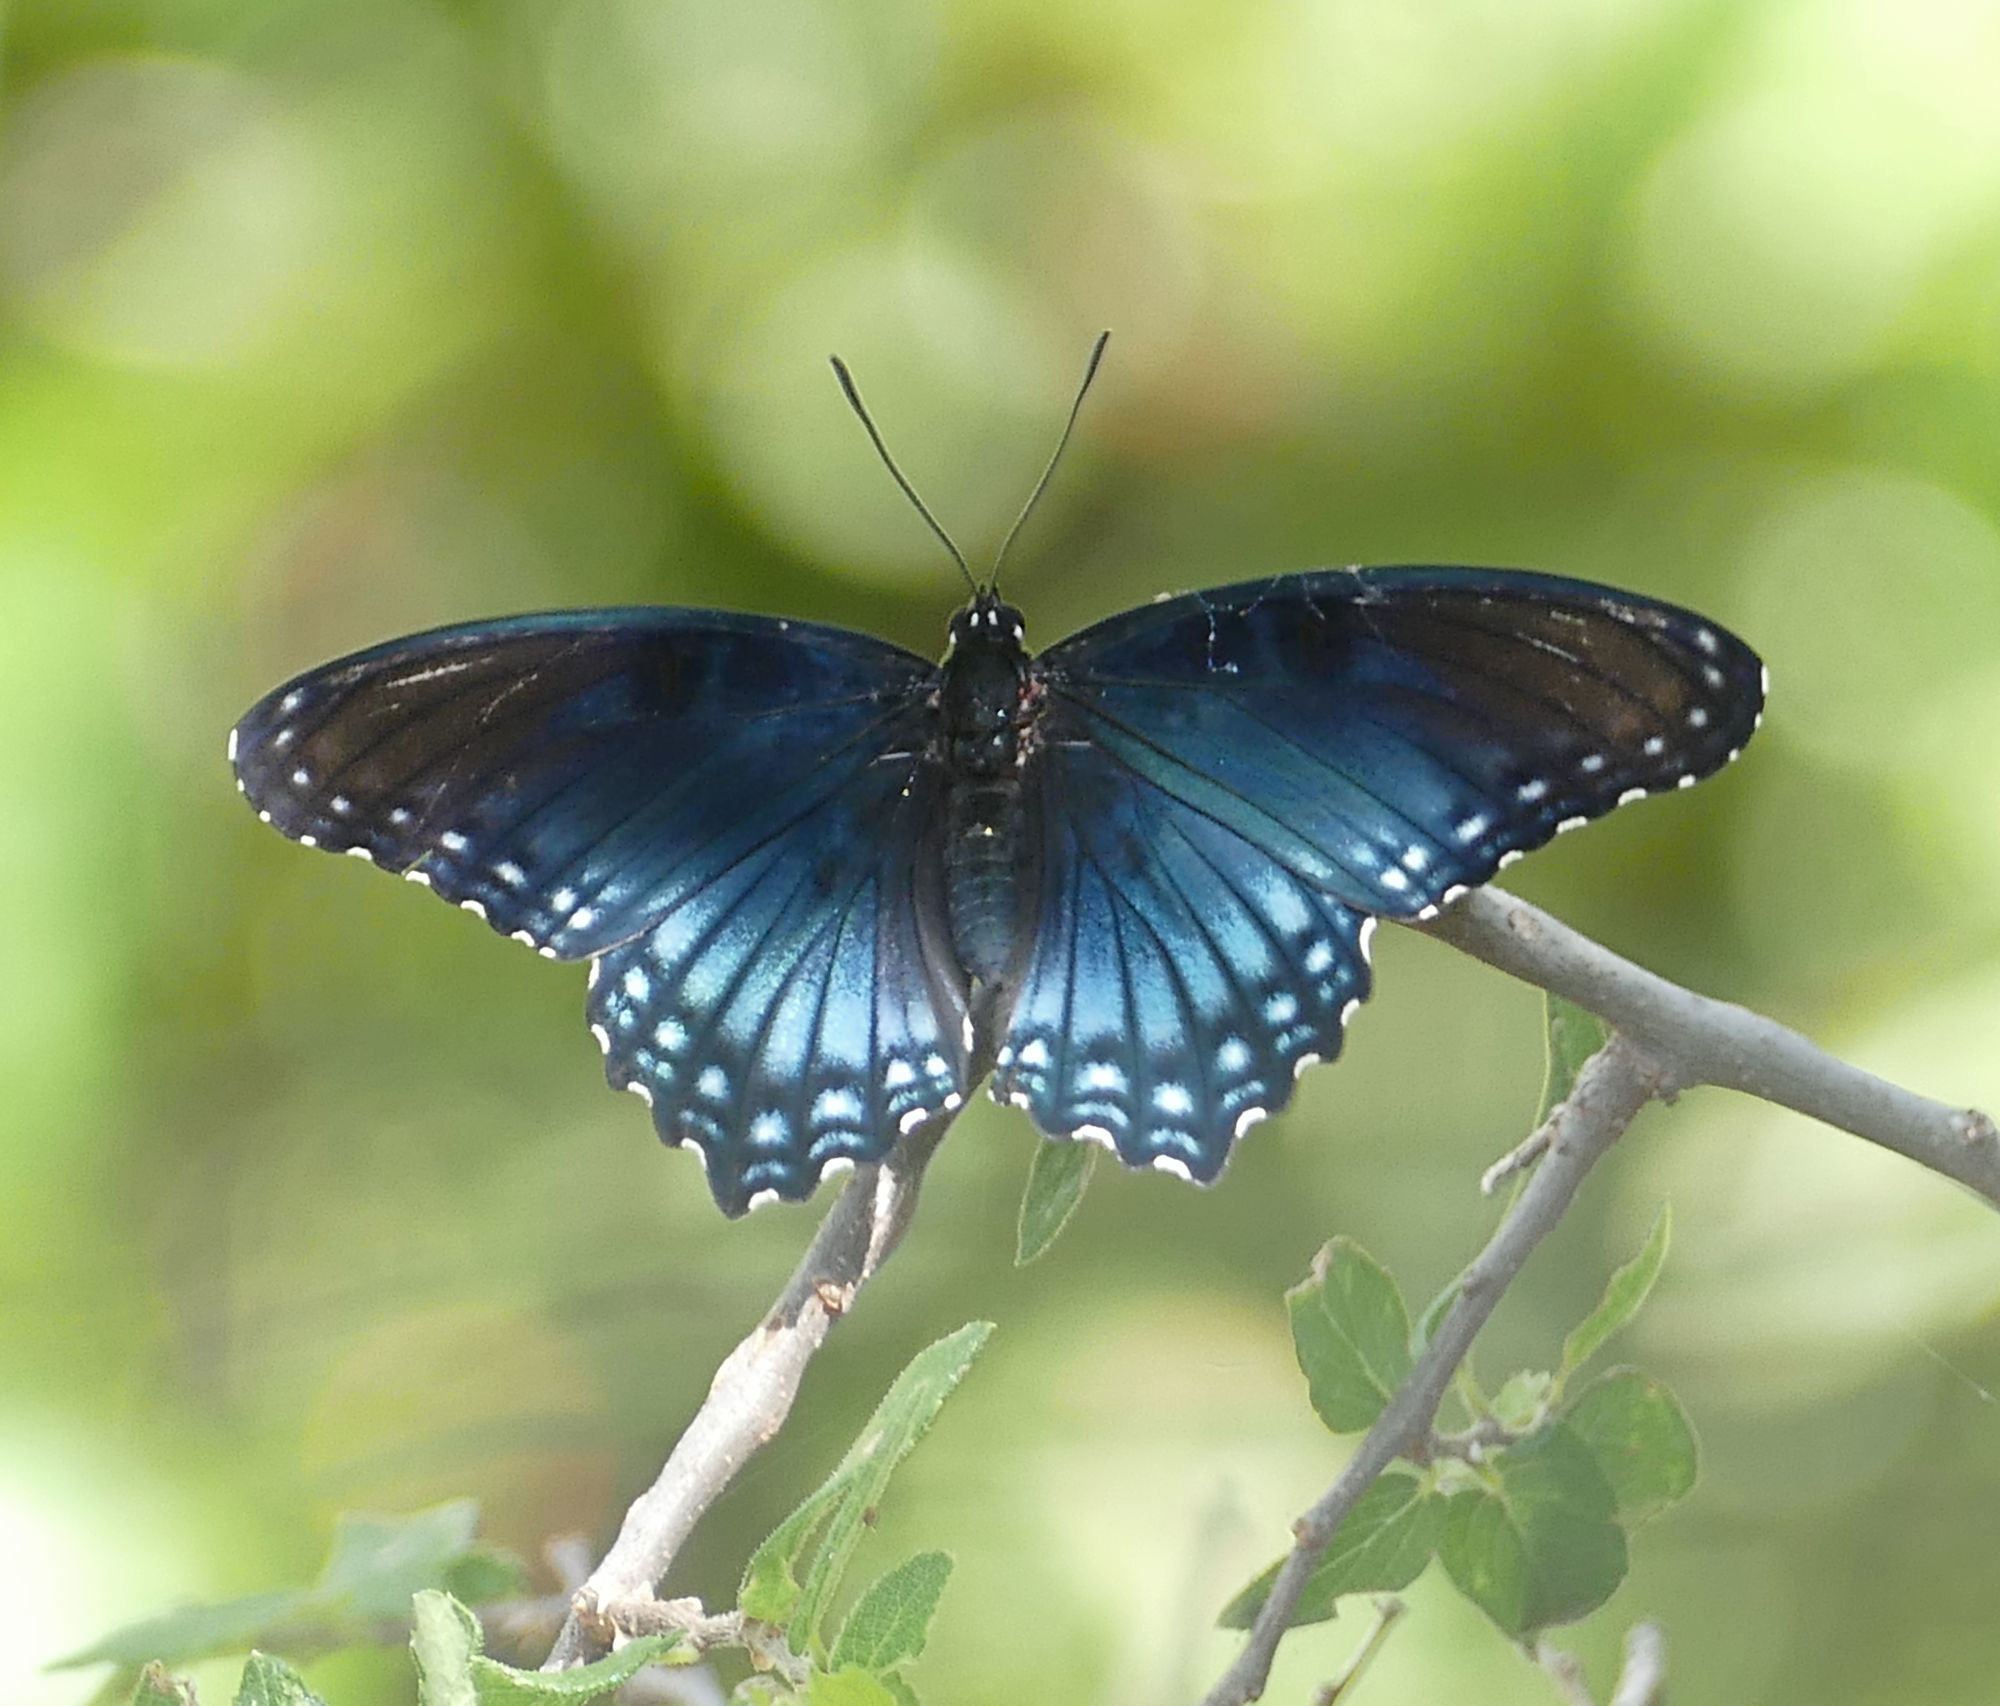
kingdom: Animalia
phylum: Arthropoda
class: Insecta
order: Lepidoptera
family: Nymphalidae
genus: Limenitis
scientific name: Limenitis arthemis
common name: Red-spotted admiral
